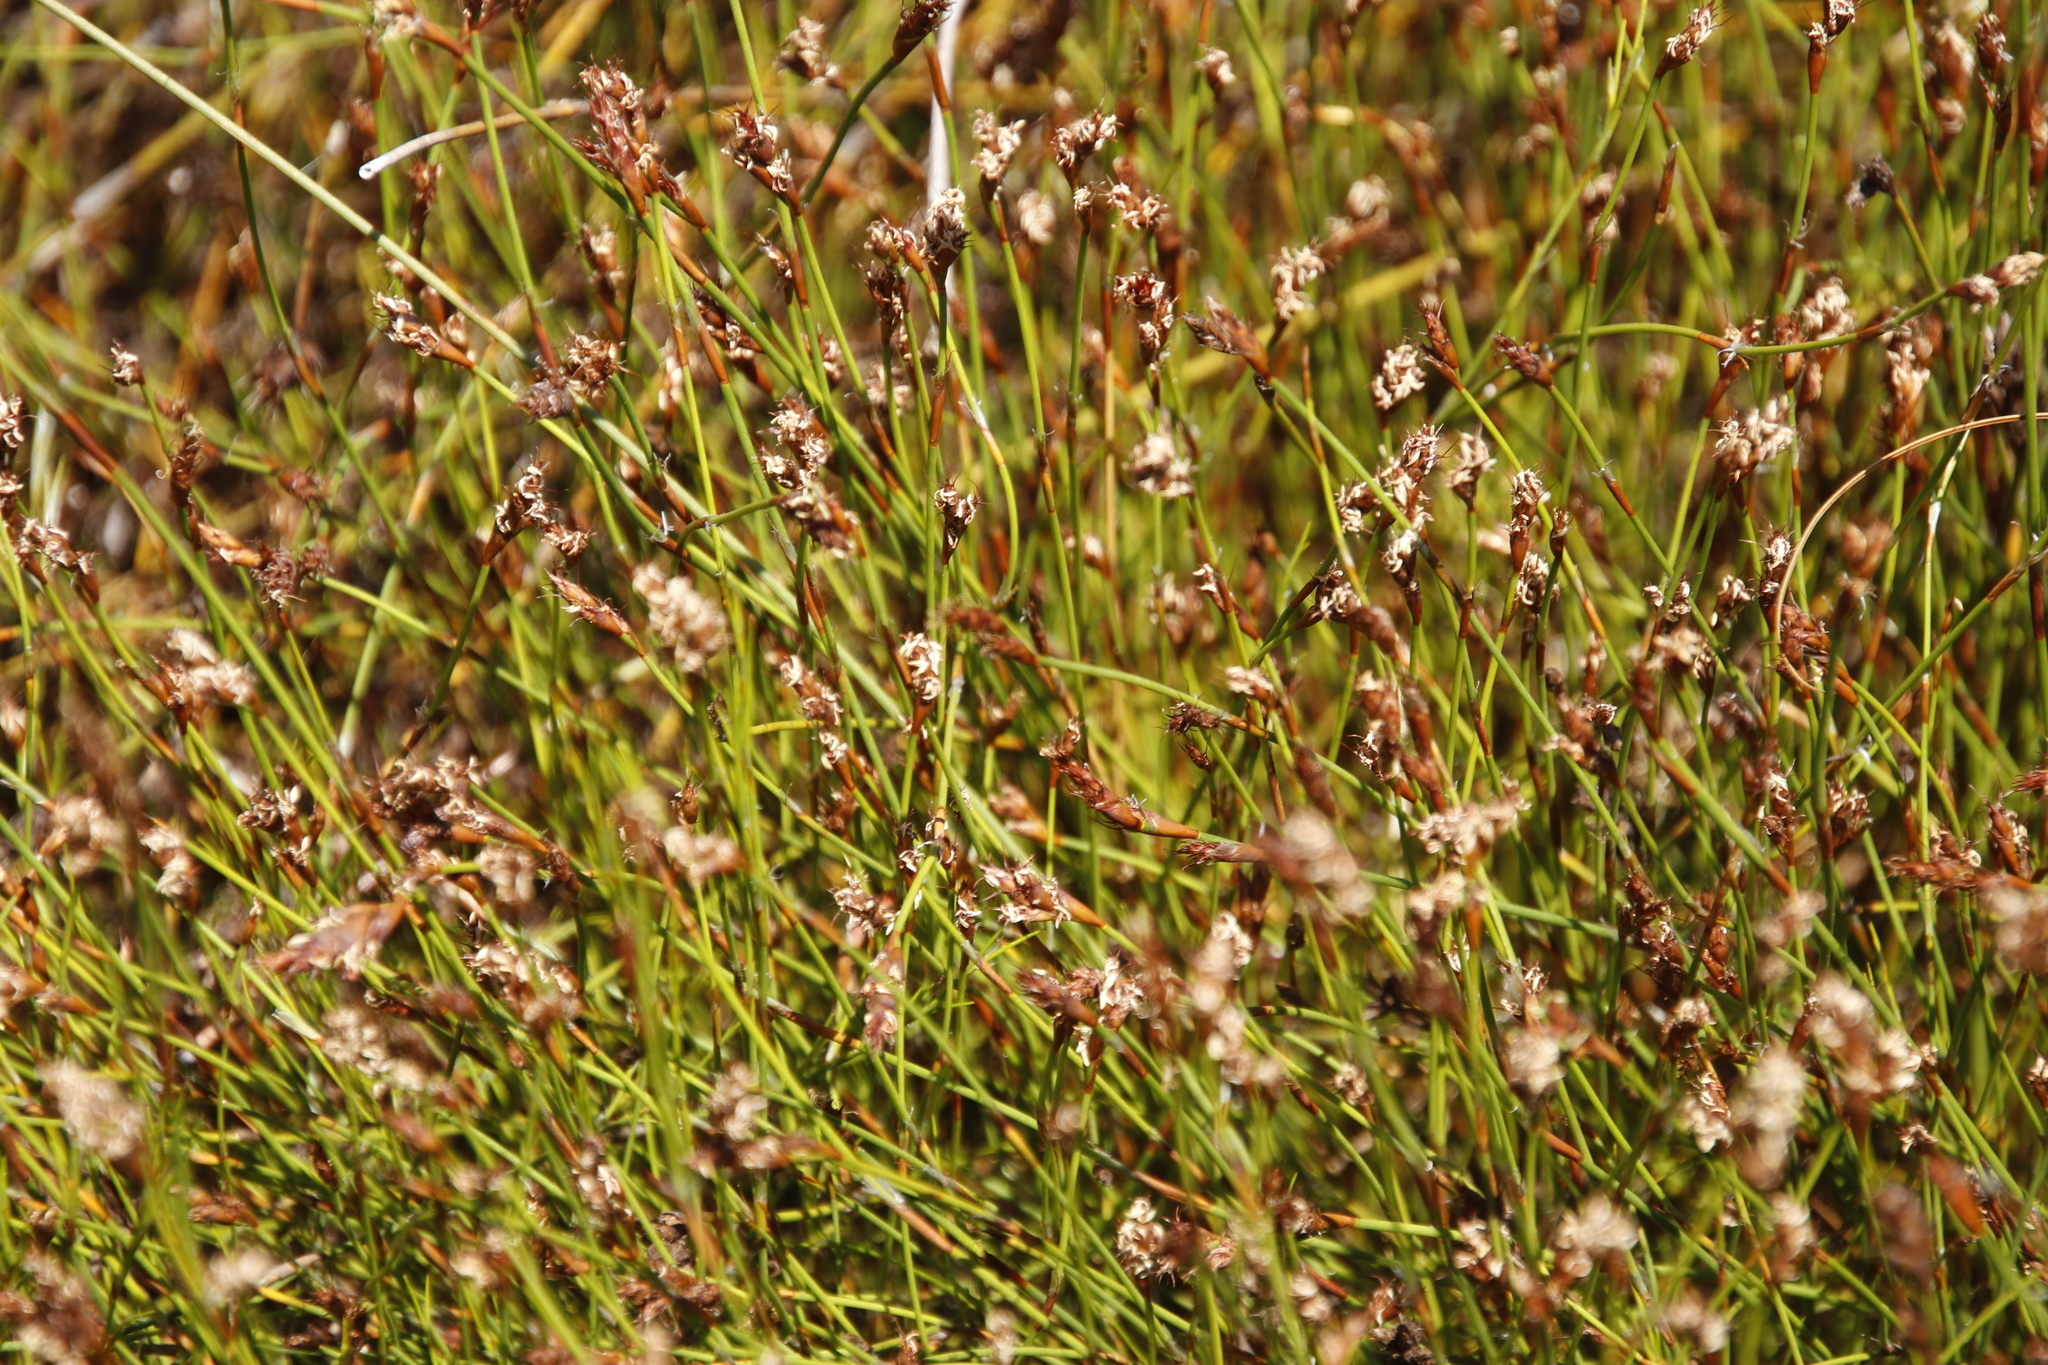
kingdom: Plantae
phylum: Tracheophyta
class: Liliopsida
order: Poales
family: Restionaceae
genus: Restio
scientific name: Restio capensis
